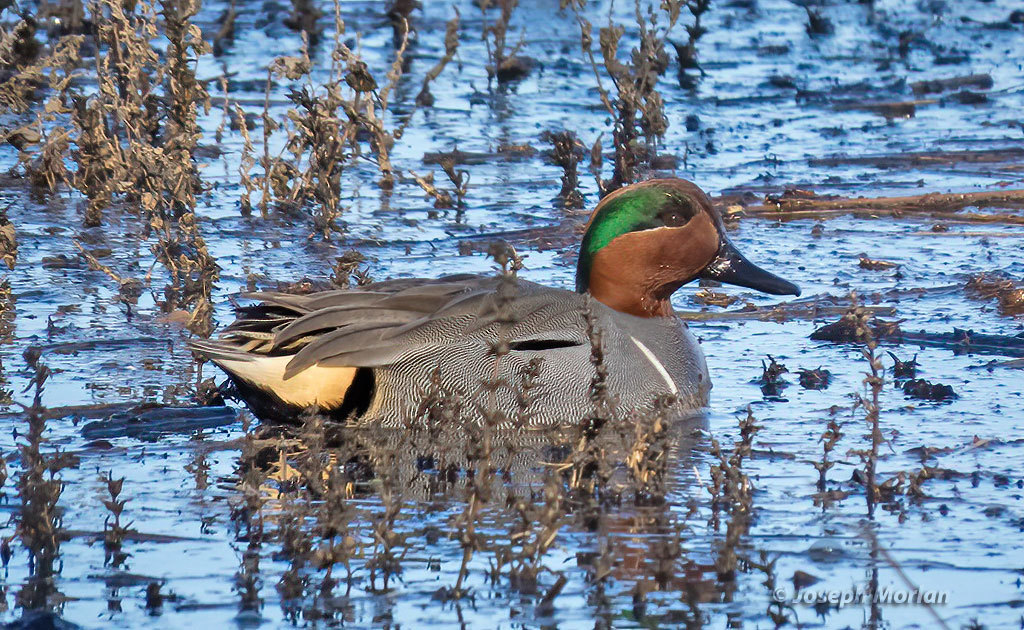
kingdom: Animalia
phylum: Chordata
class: Aves
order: Anseriformes
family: Anatidae
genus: Anas
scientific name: Anas crecca
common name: Eurasian teal
